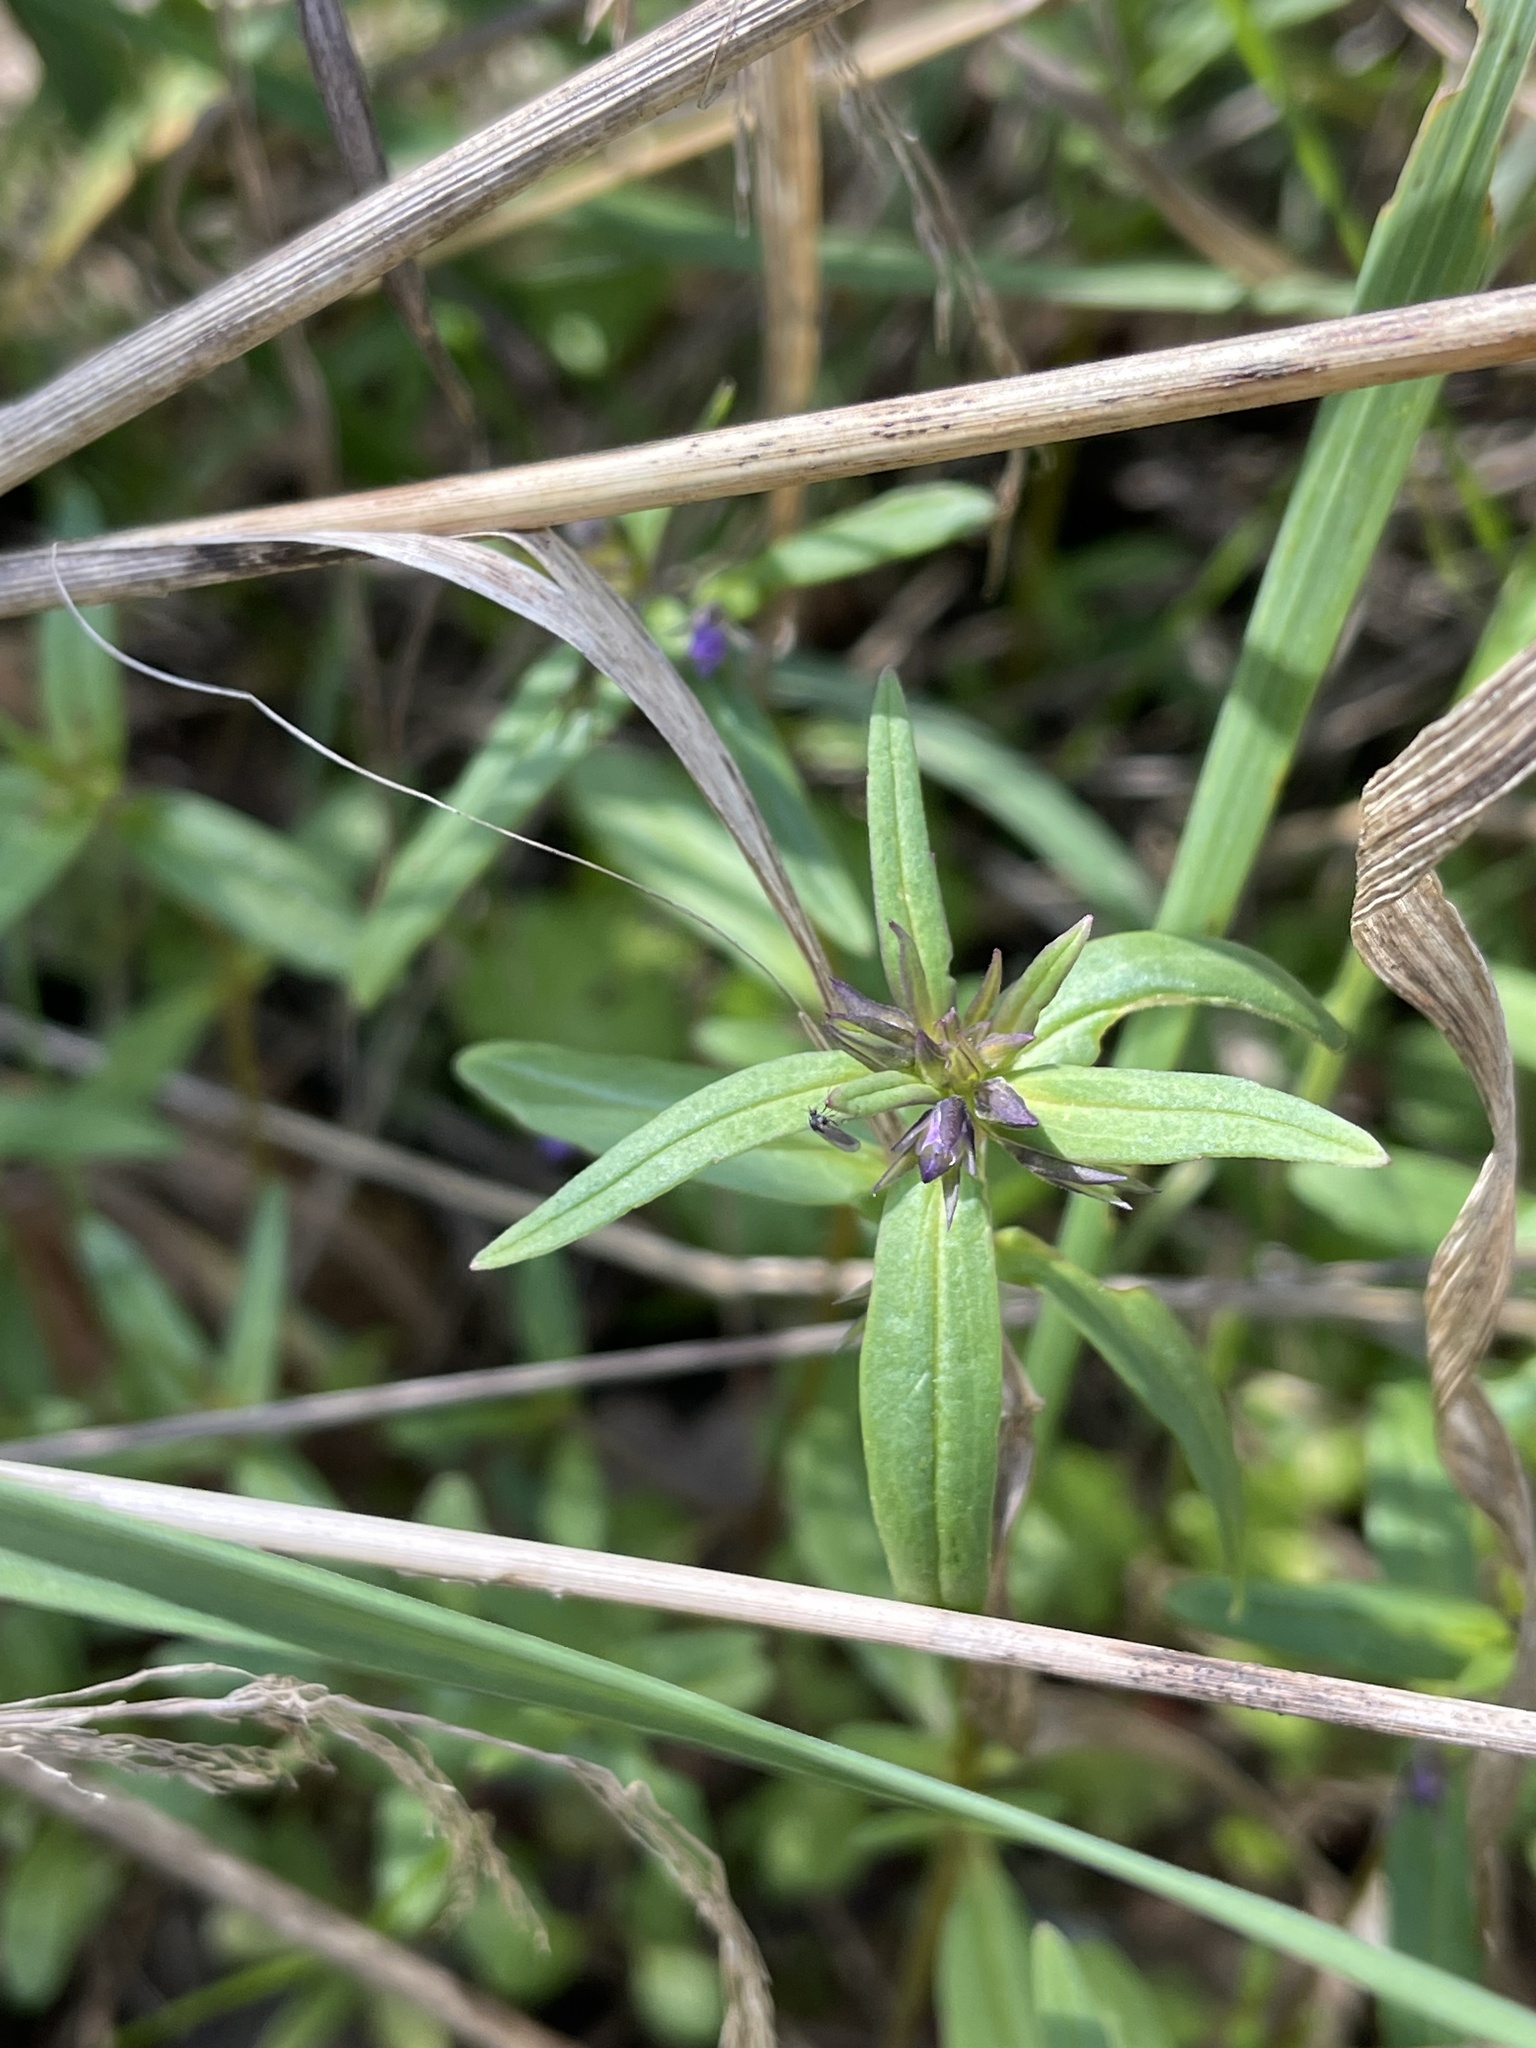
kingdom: Plantae
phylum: Tracheophyta
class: Magnoliopsida
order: Lamiales
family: Plantaginaceae
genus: Collinsia
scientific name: Collinsia grandiflora
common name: Large-flower blue-eyed-mary
